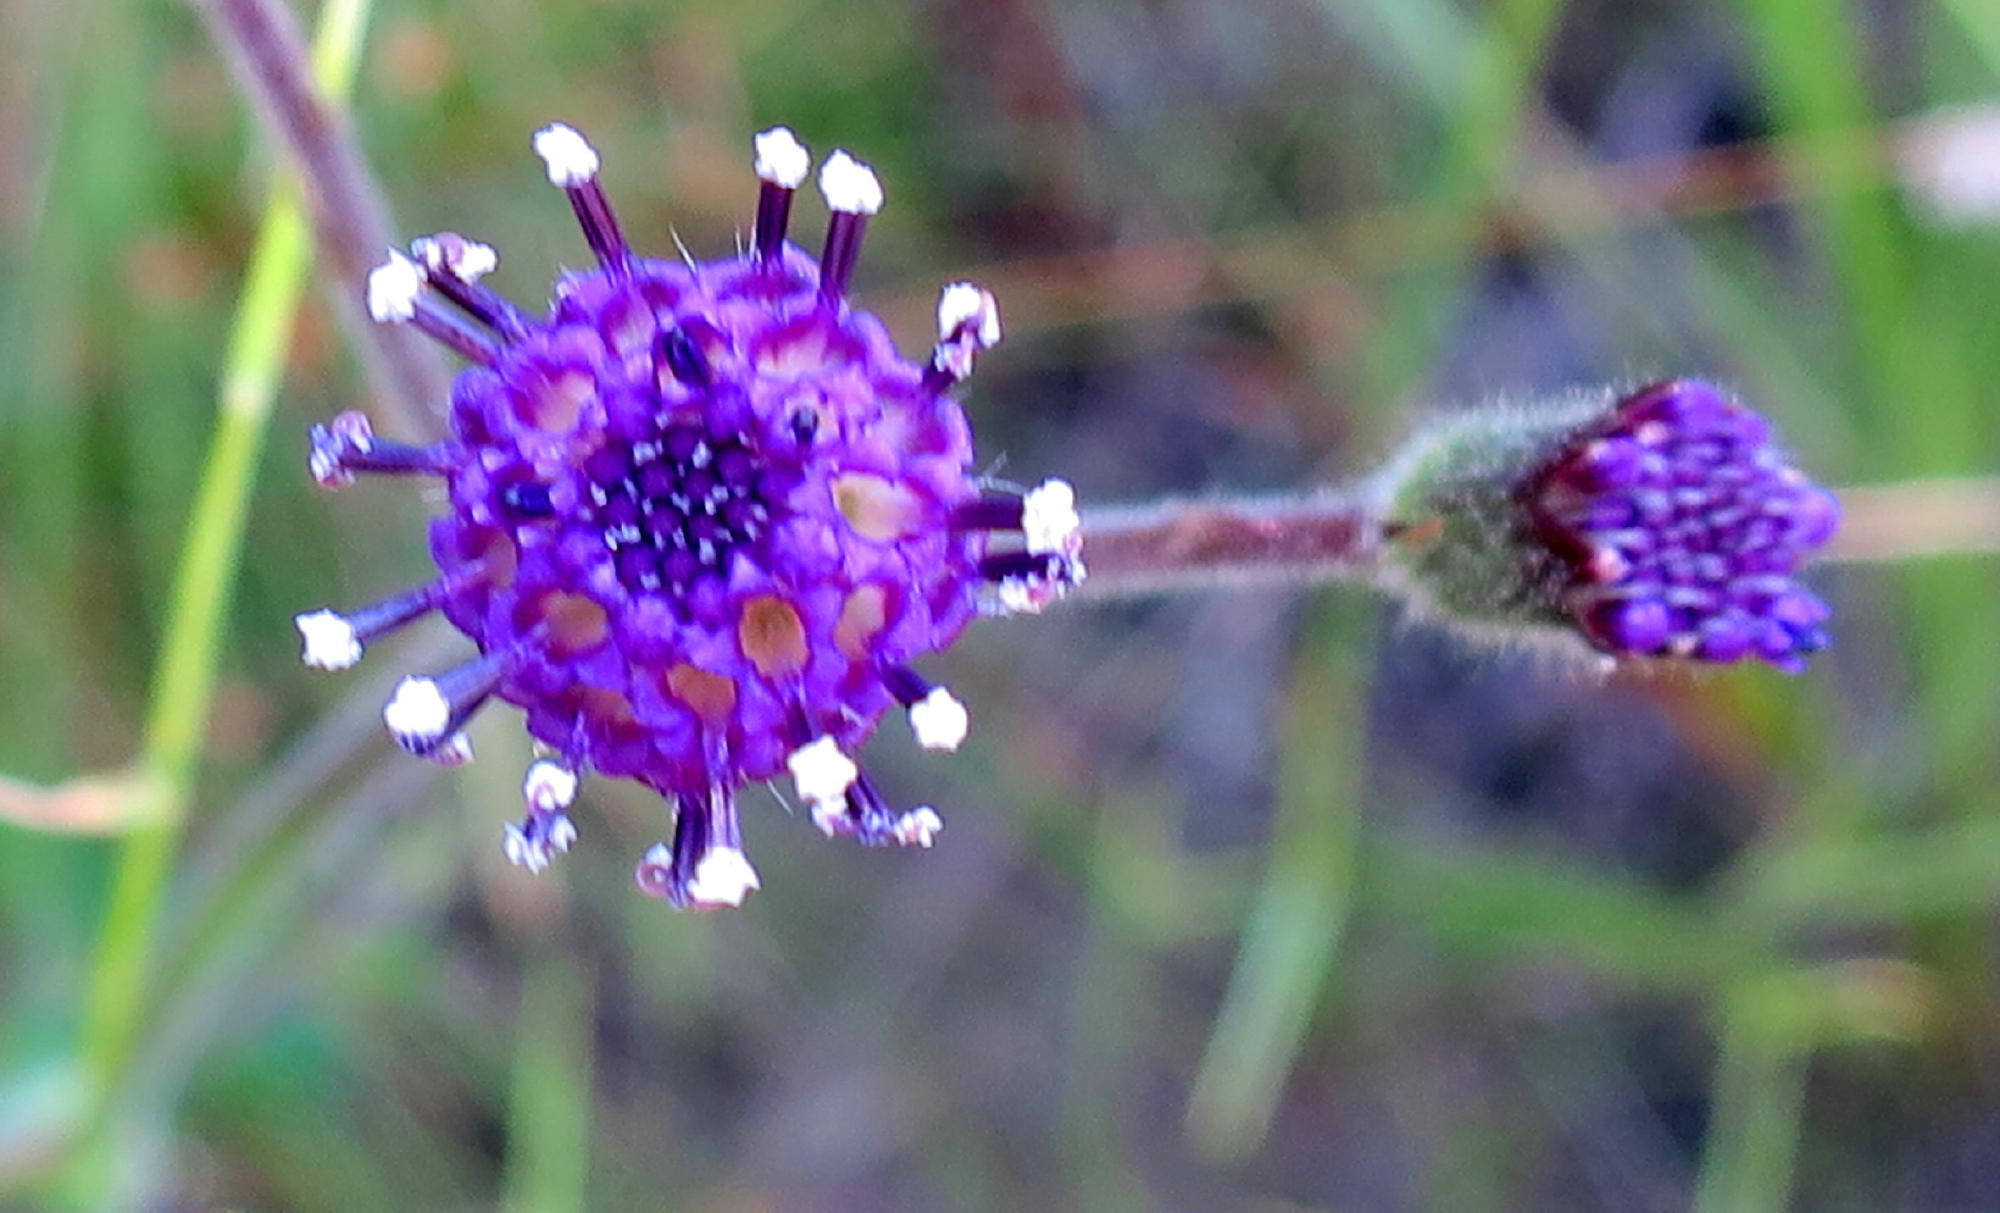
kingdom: Plantae
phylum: Tracheophyta
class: Magnoliopsida
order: Asterales
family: Asteraceae
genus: Senecio
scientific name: Senecio erubescens
